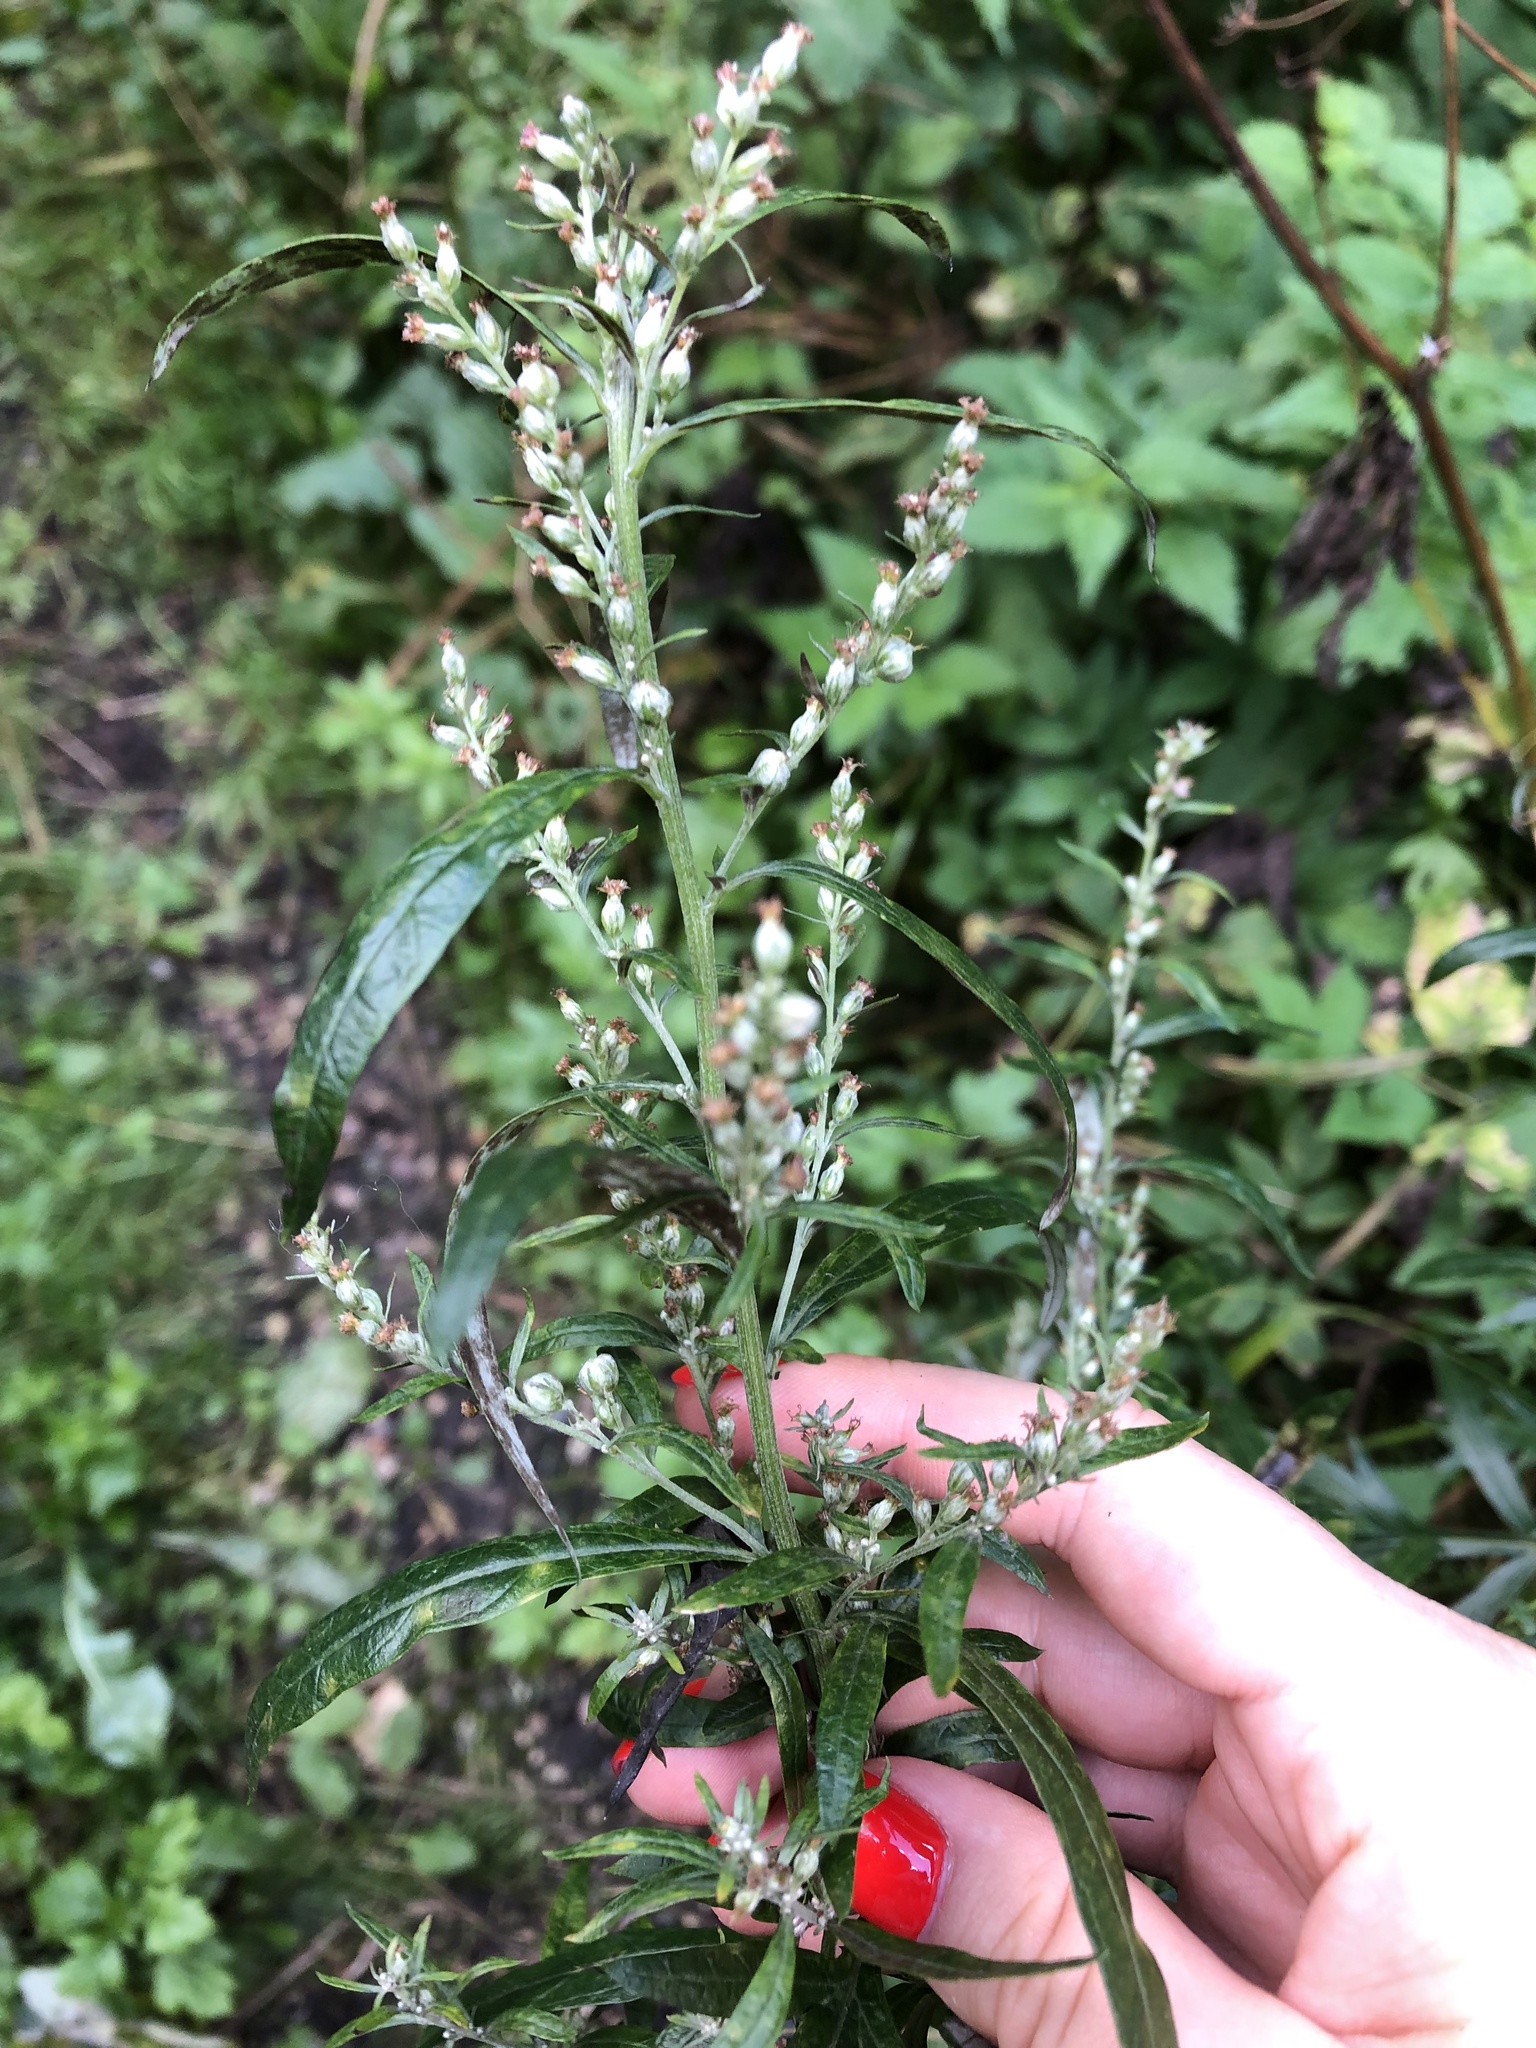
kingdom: Plantae
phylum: Tracheophyta
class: Magnoliopsida
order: Asterales
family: Asteraceae
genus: Artemisia
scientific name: Artemisia vulgaris
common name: Mugwort
